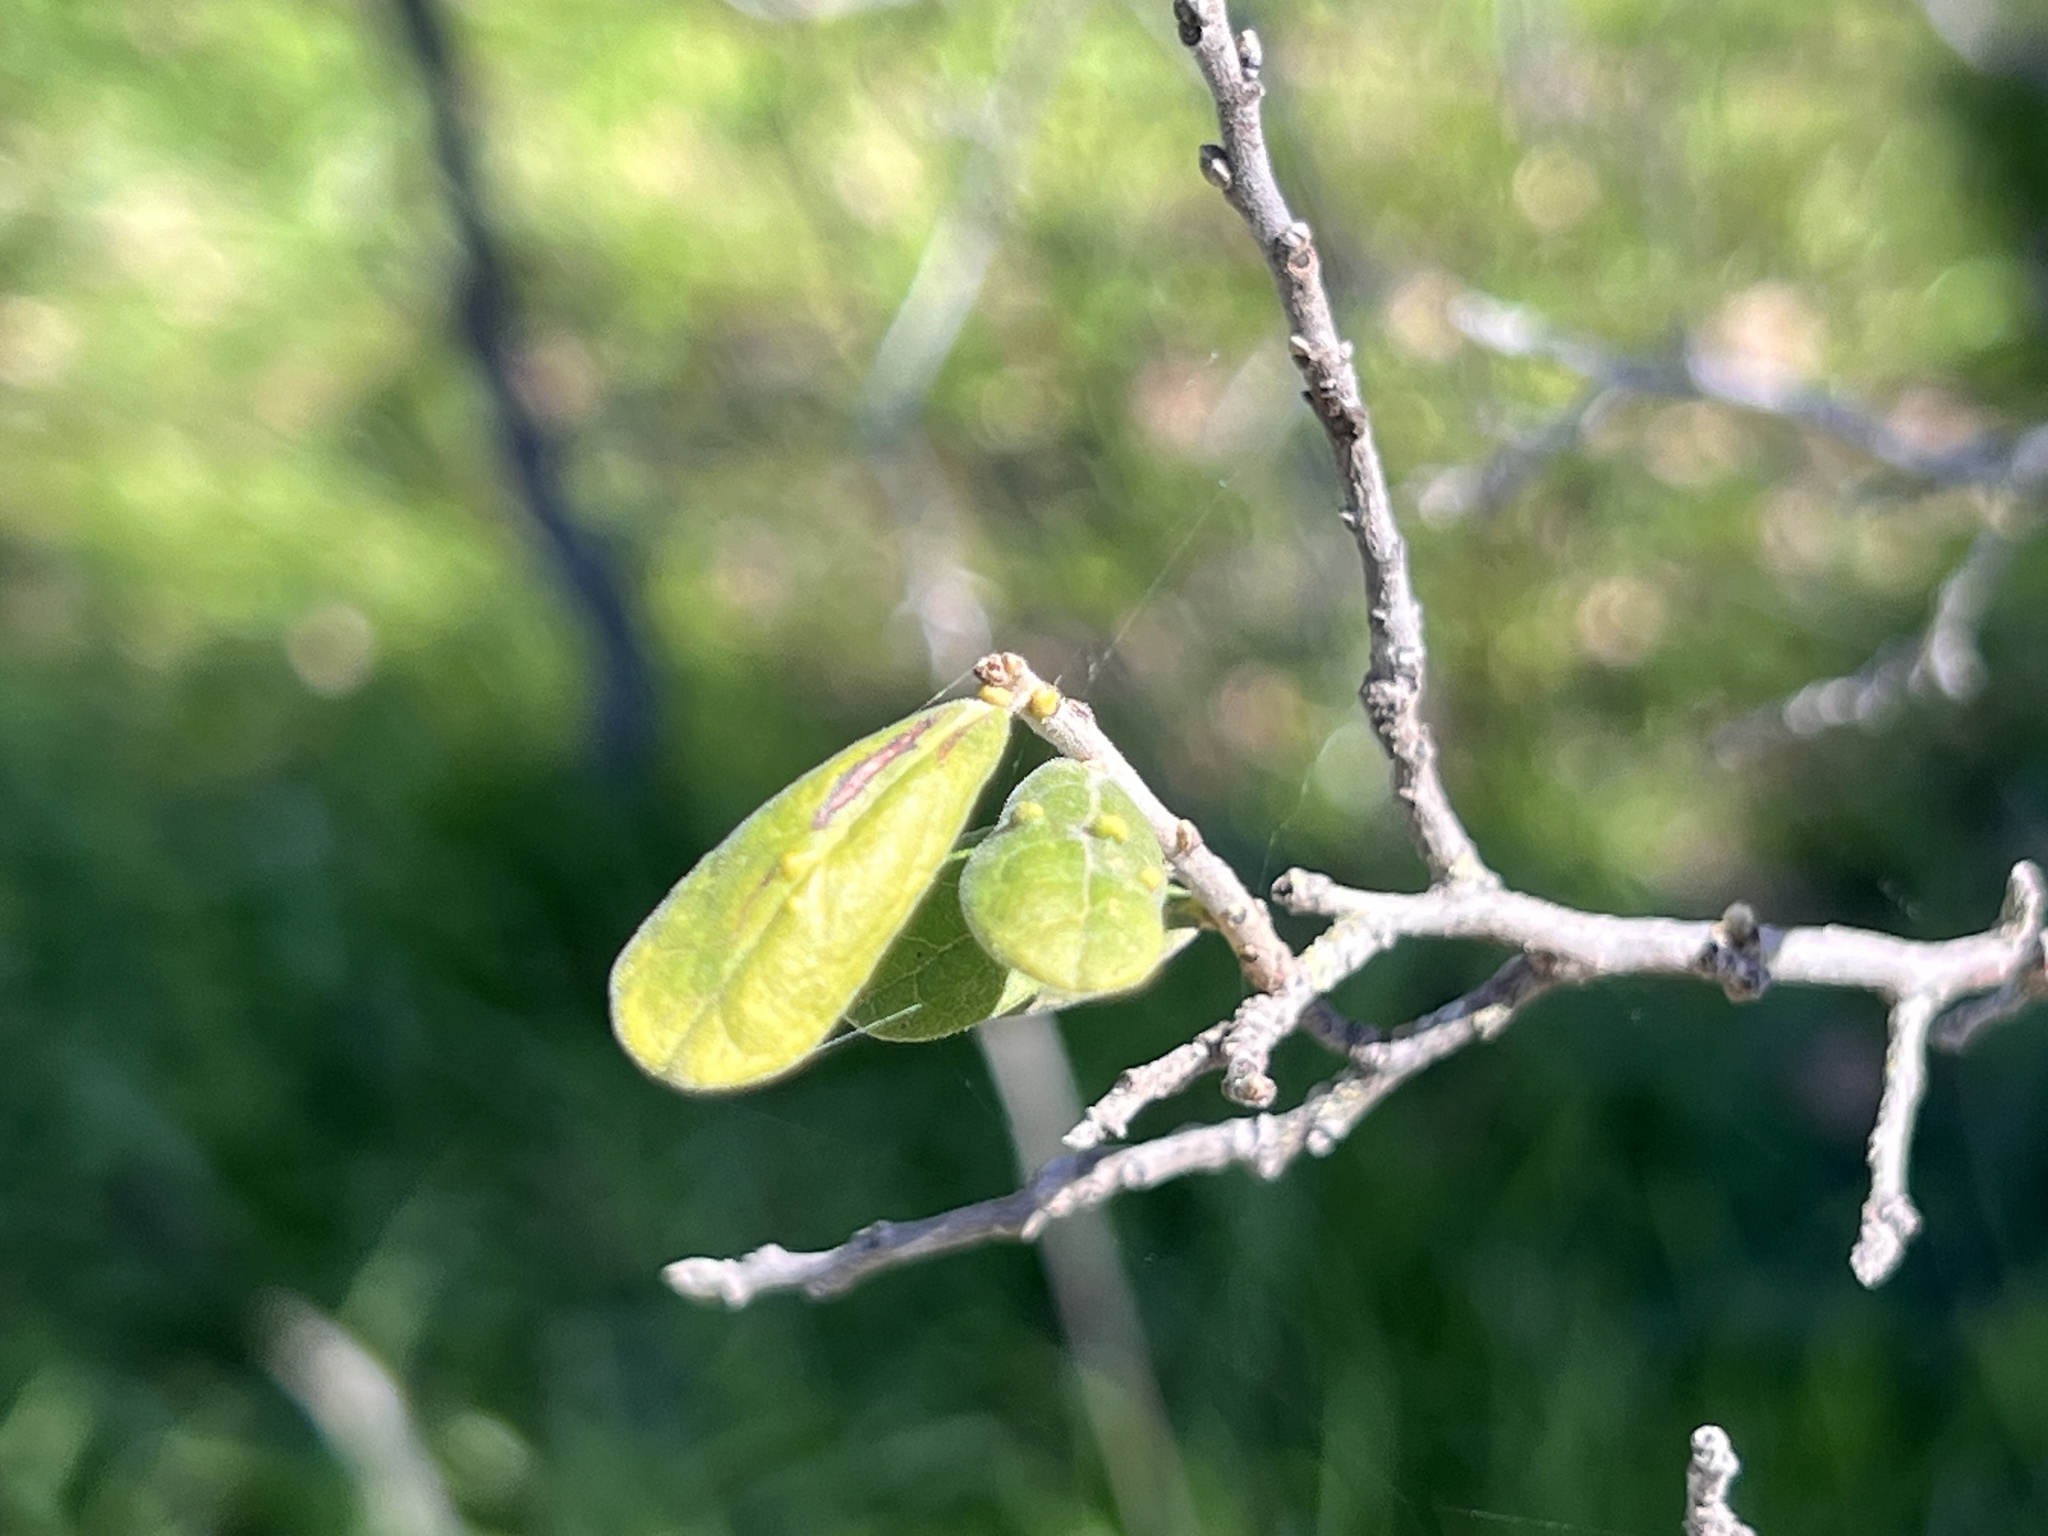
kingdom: Plantae
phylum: Tracheophyta
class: Magnoliopsida
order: Ericales
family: Ebenaceae
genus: Diospyros
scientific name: Diospyros texana
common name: Texas persimmon
